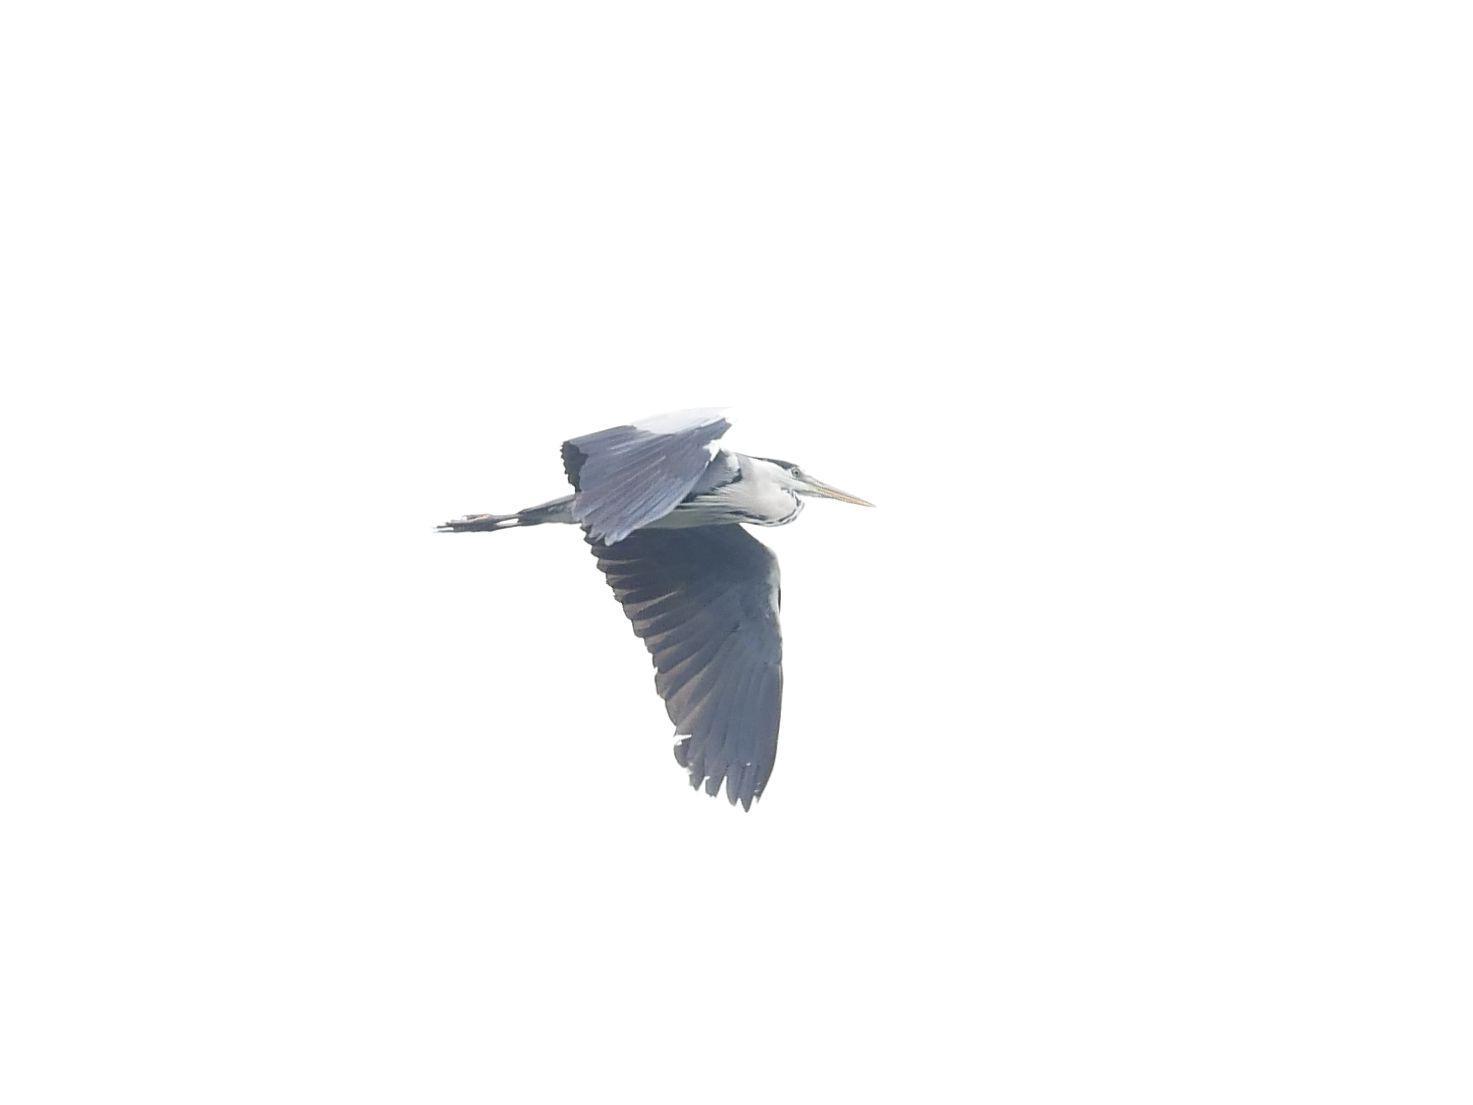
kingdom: Animalia
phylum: Chordata
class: Aves
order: Pelecaniformes
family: Ardeidae
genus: Ardea
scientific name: Ardea cinerea
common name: Grey heron
